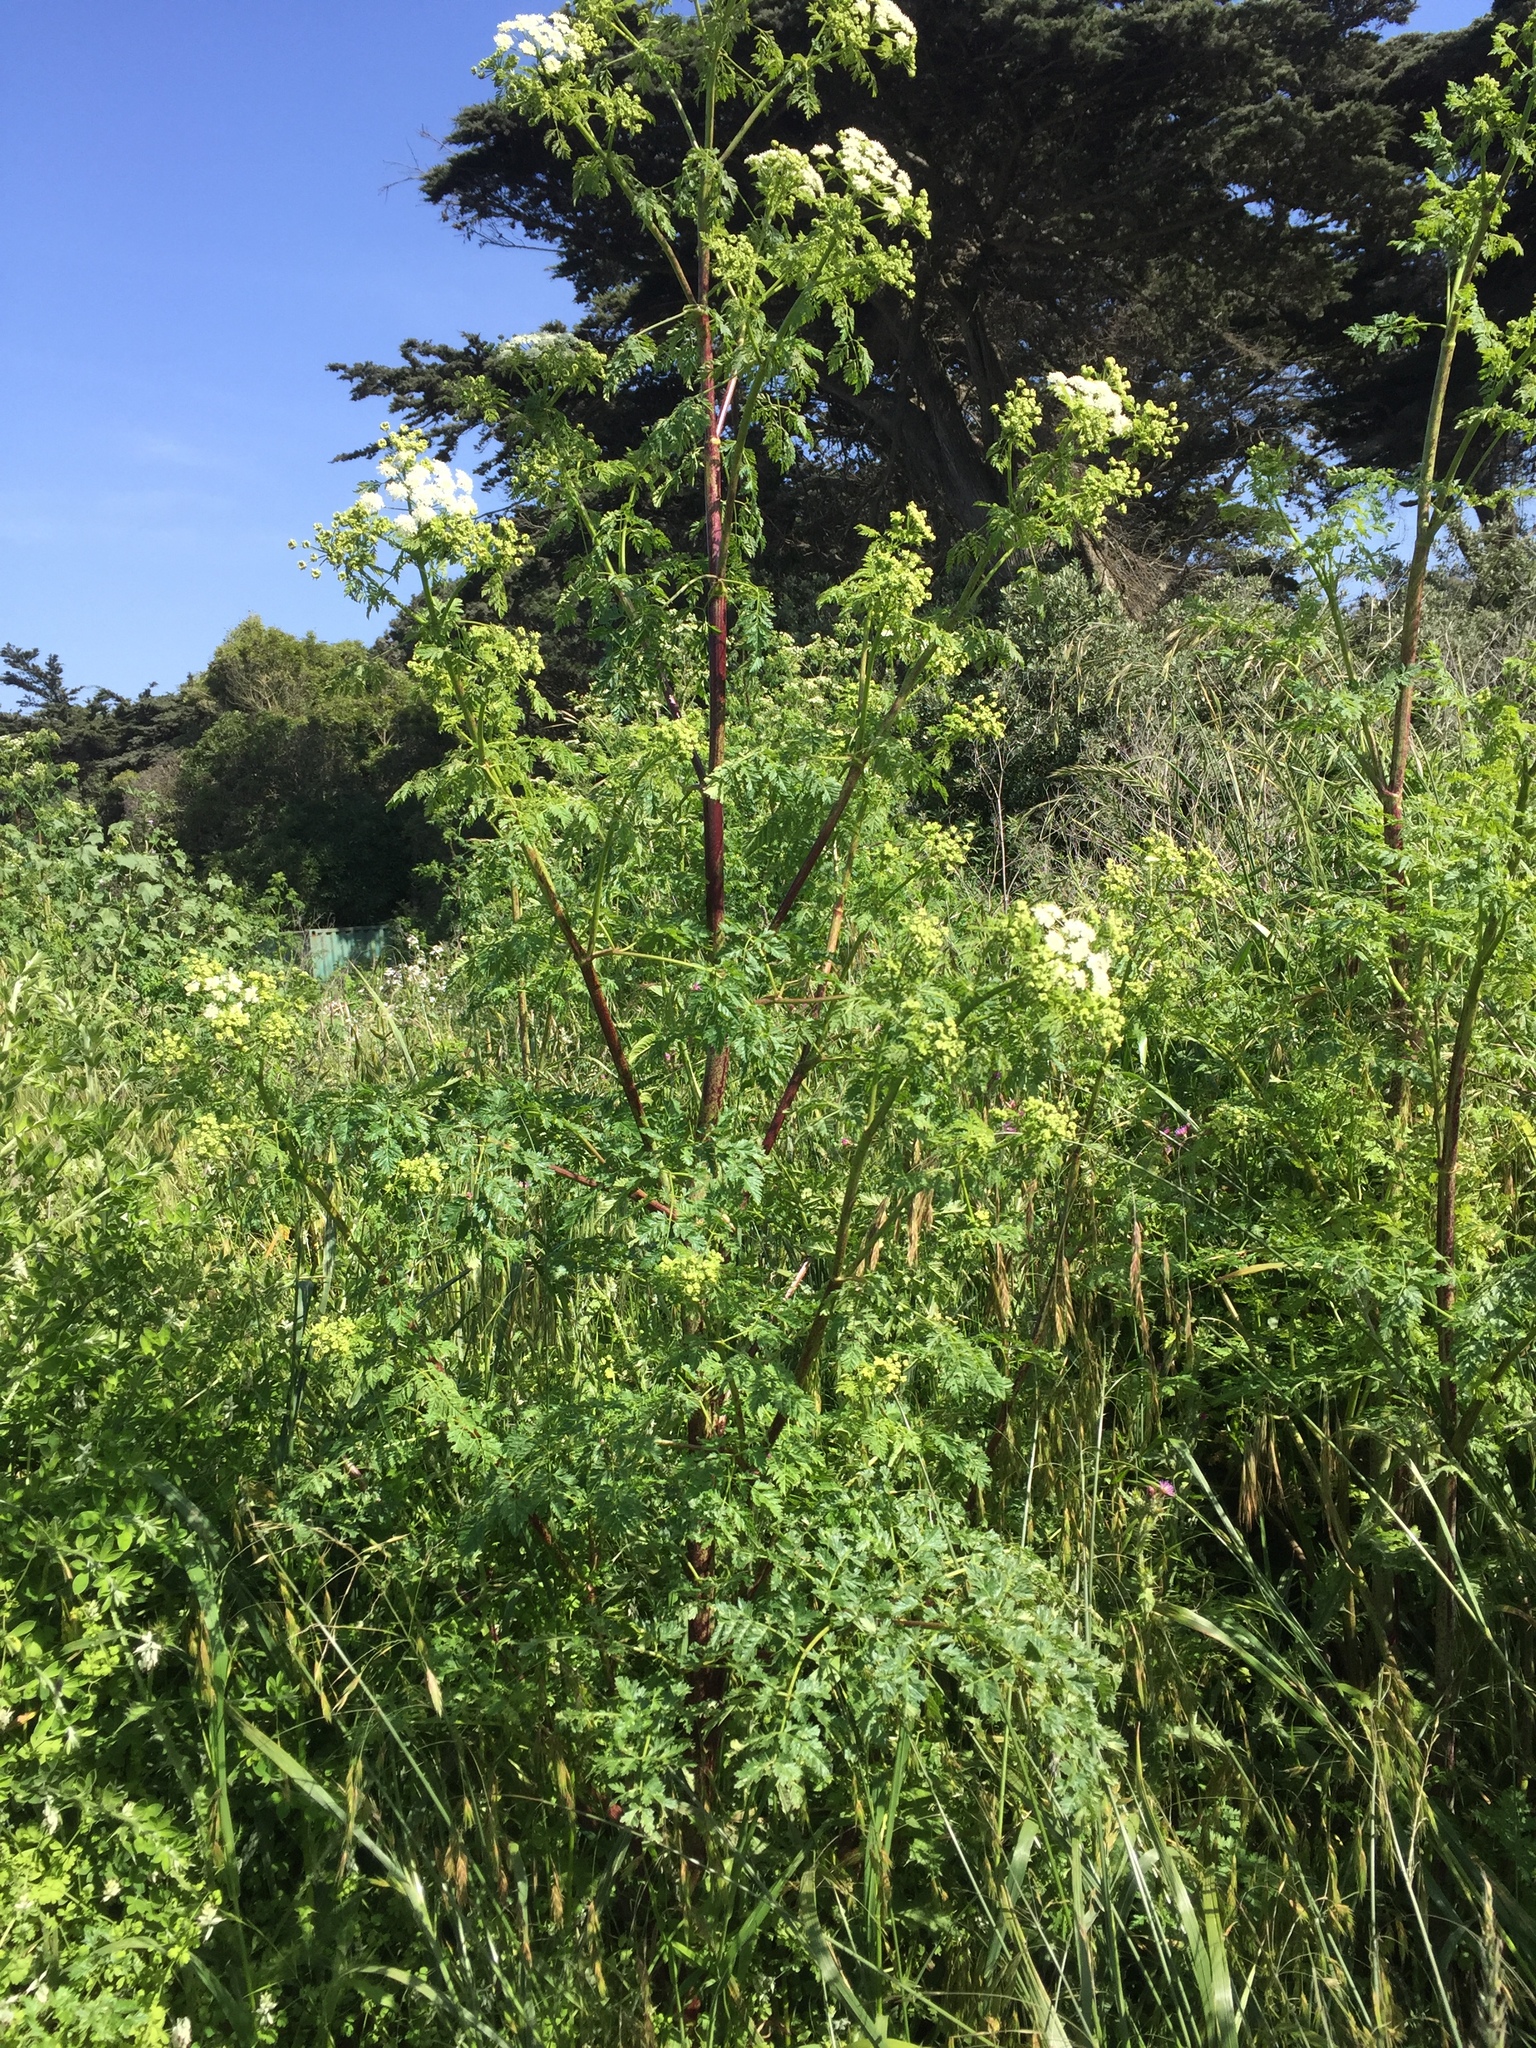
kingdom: Plantae
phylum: Tracheophyta
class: Magnoliopsida
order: Apiales
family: Apiaceae
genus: Conium
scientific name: Conium maculatum
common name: Hemlock
